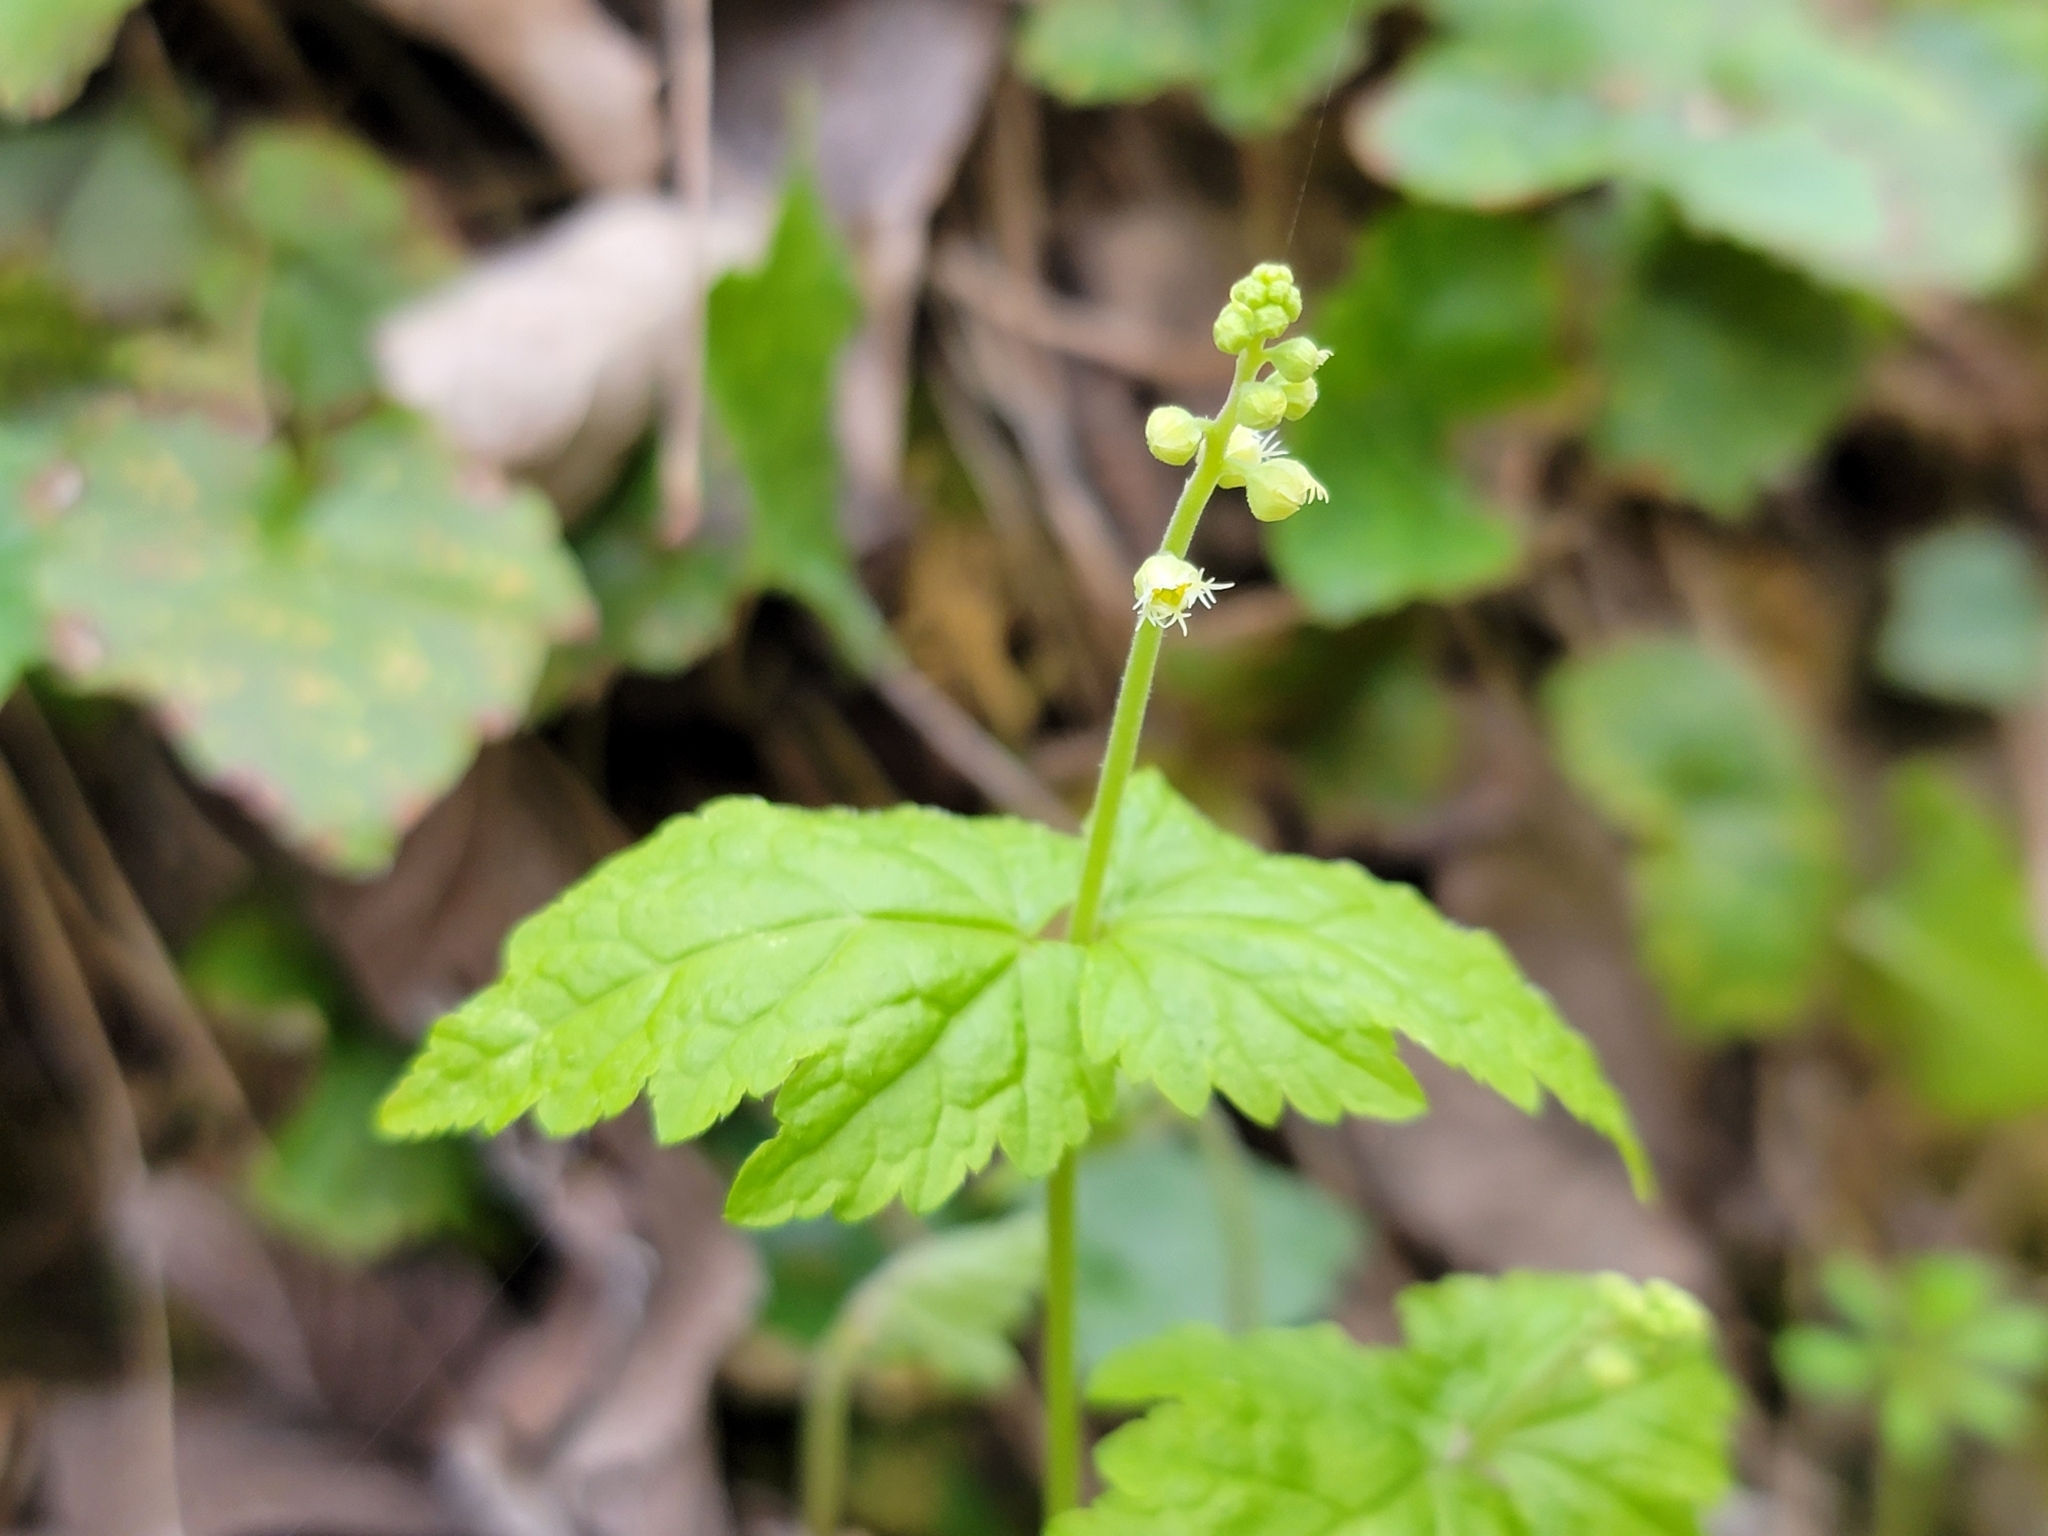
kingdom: Plantae
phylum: Tracheophyta
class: Magnoliopsida
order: Saxifragales
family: Saxifragaceae
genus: Mitella
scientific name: Mitella diphylla
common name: Coolwort
